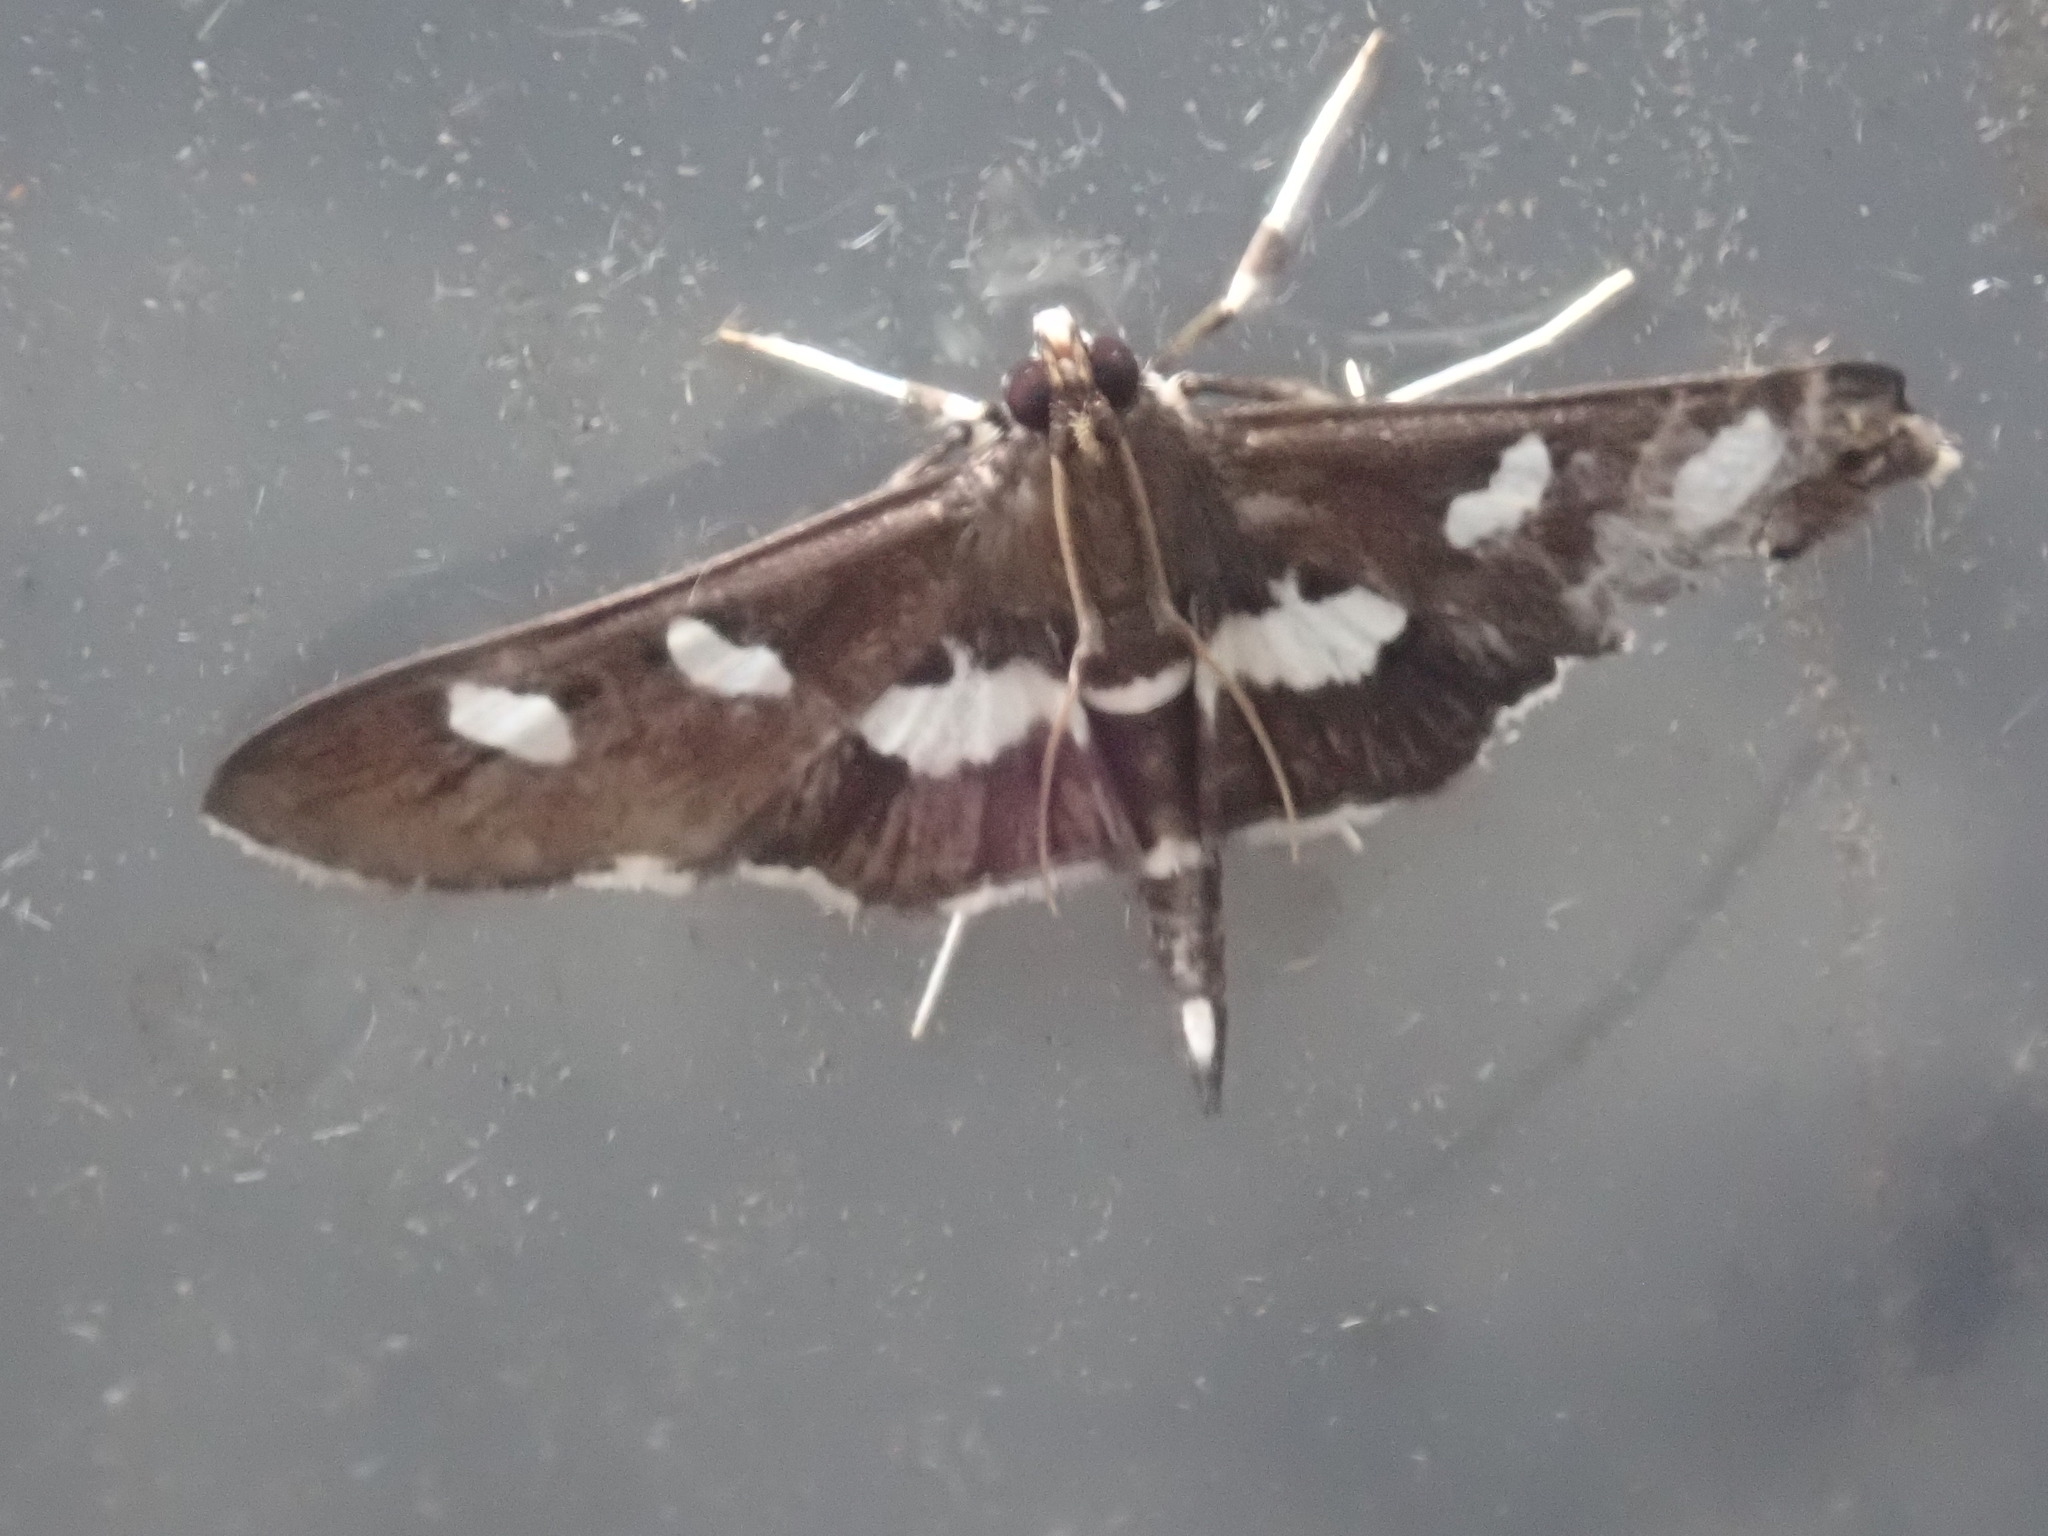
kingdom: Animalia
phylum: Arthropoda
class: Insecta
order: Lepidoptera
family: Crambidae
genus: Desmia
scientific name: Desmia
